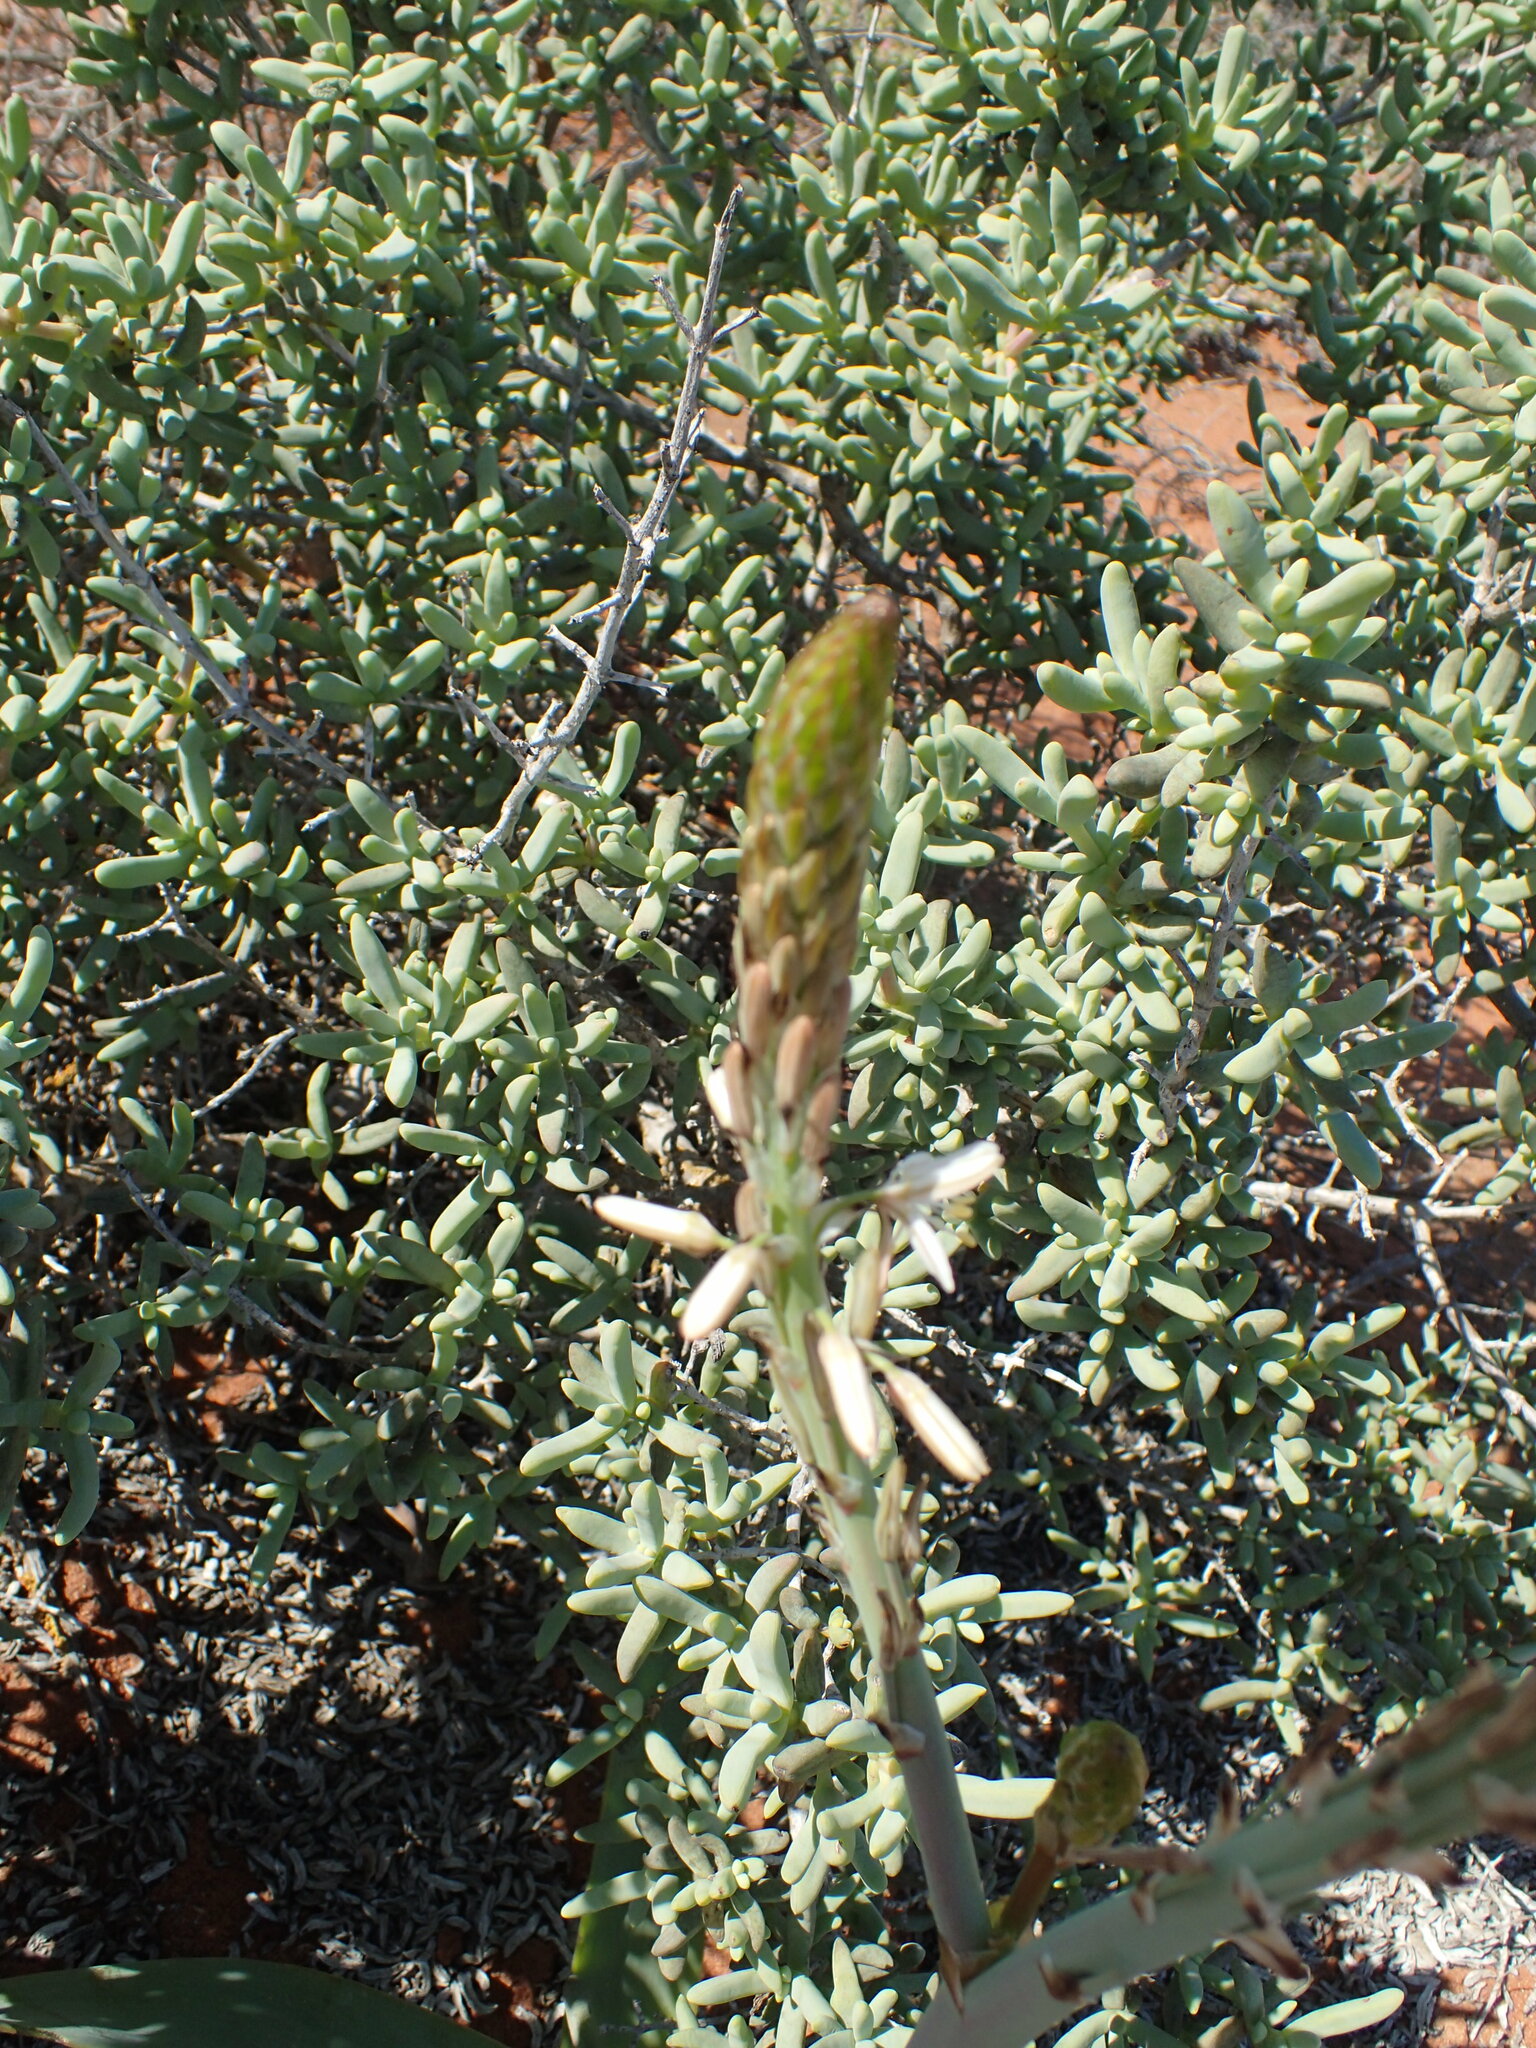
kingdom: Plantae
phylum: Tracheophyta
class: Liliopsida
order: Asparagales
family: Asphodelaceae
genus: Trachyandra
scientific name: Trachyandra falcata
